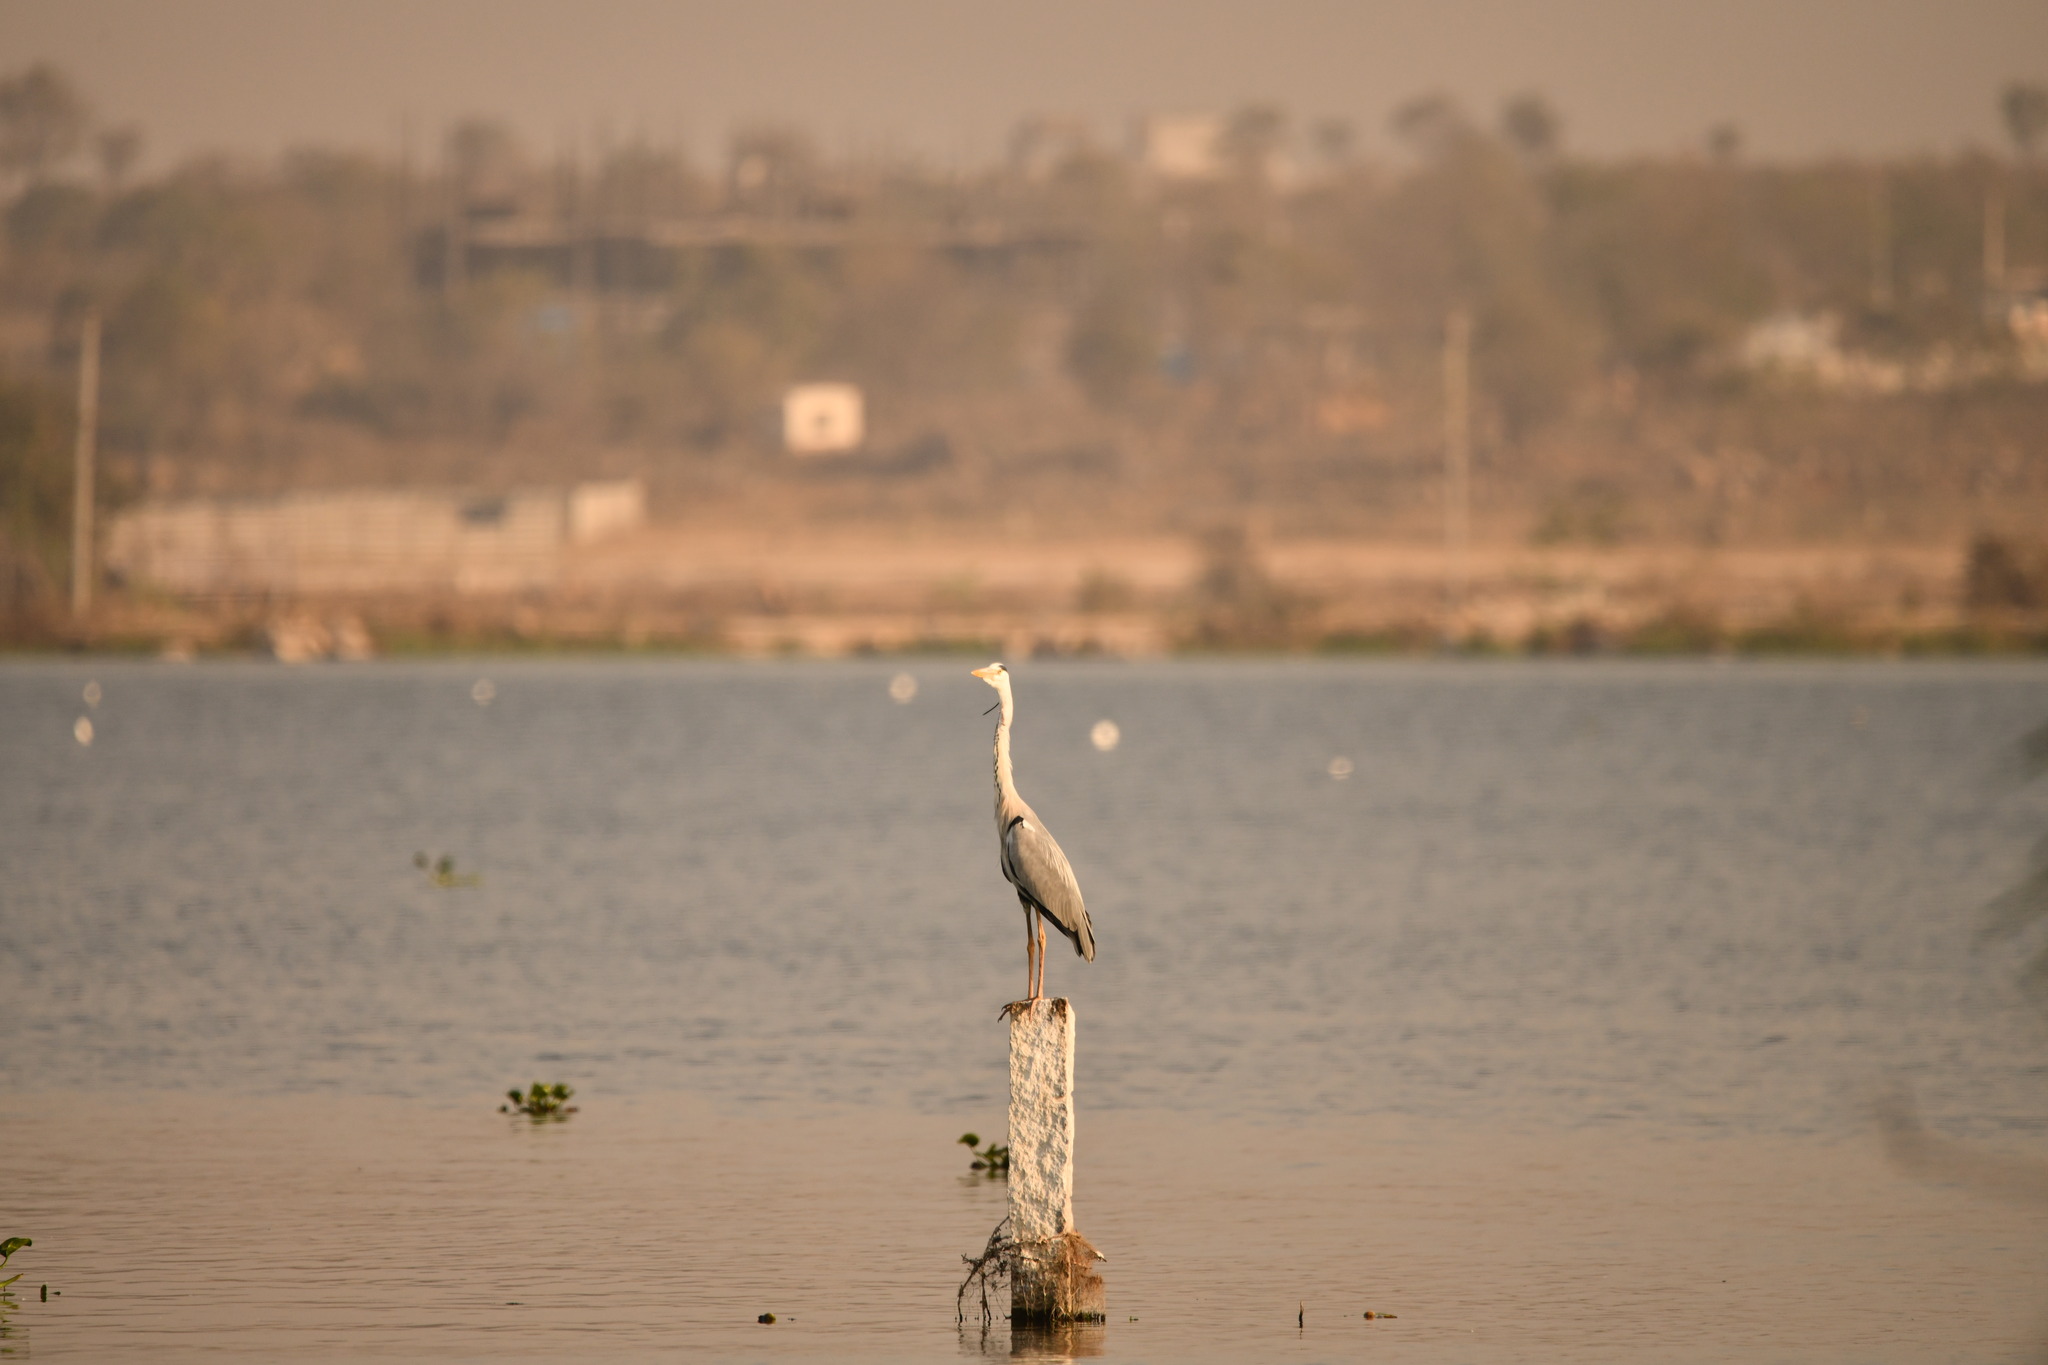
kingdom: Animalia
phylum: Chordata
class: Aves
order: Pelecaniformes
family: Ardeidae
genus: Ardea
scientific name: Ardea cinerea
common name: Grey heron
